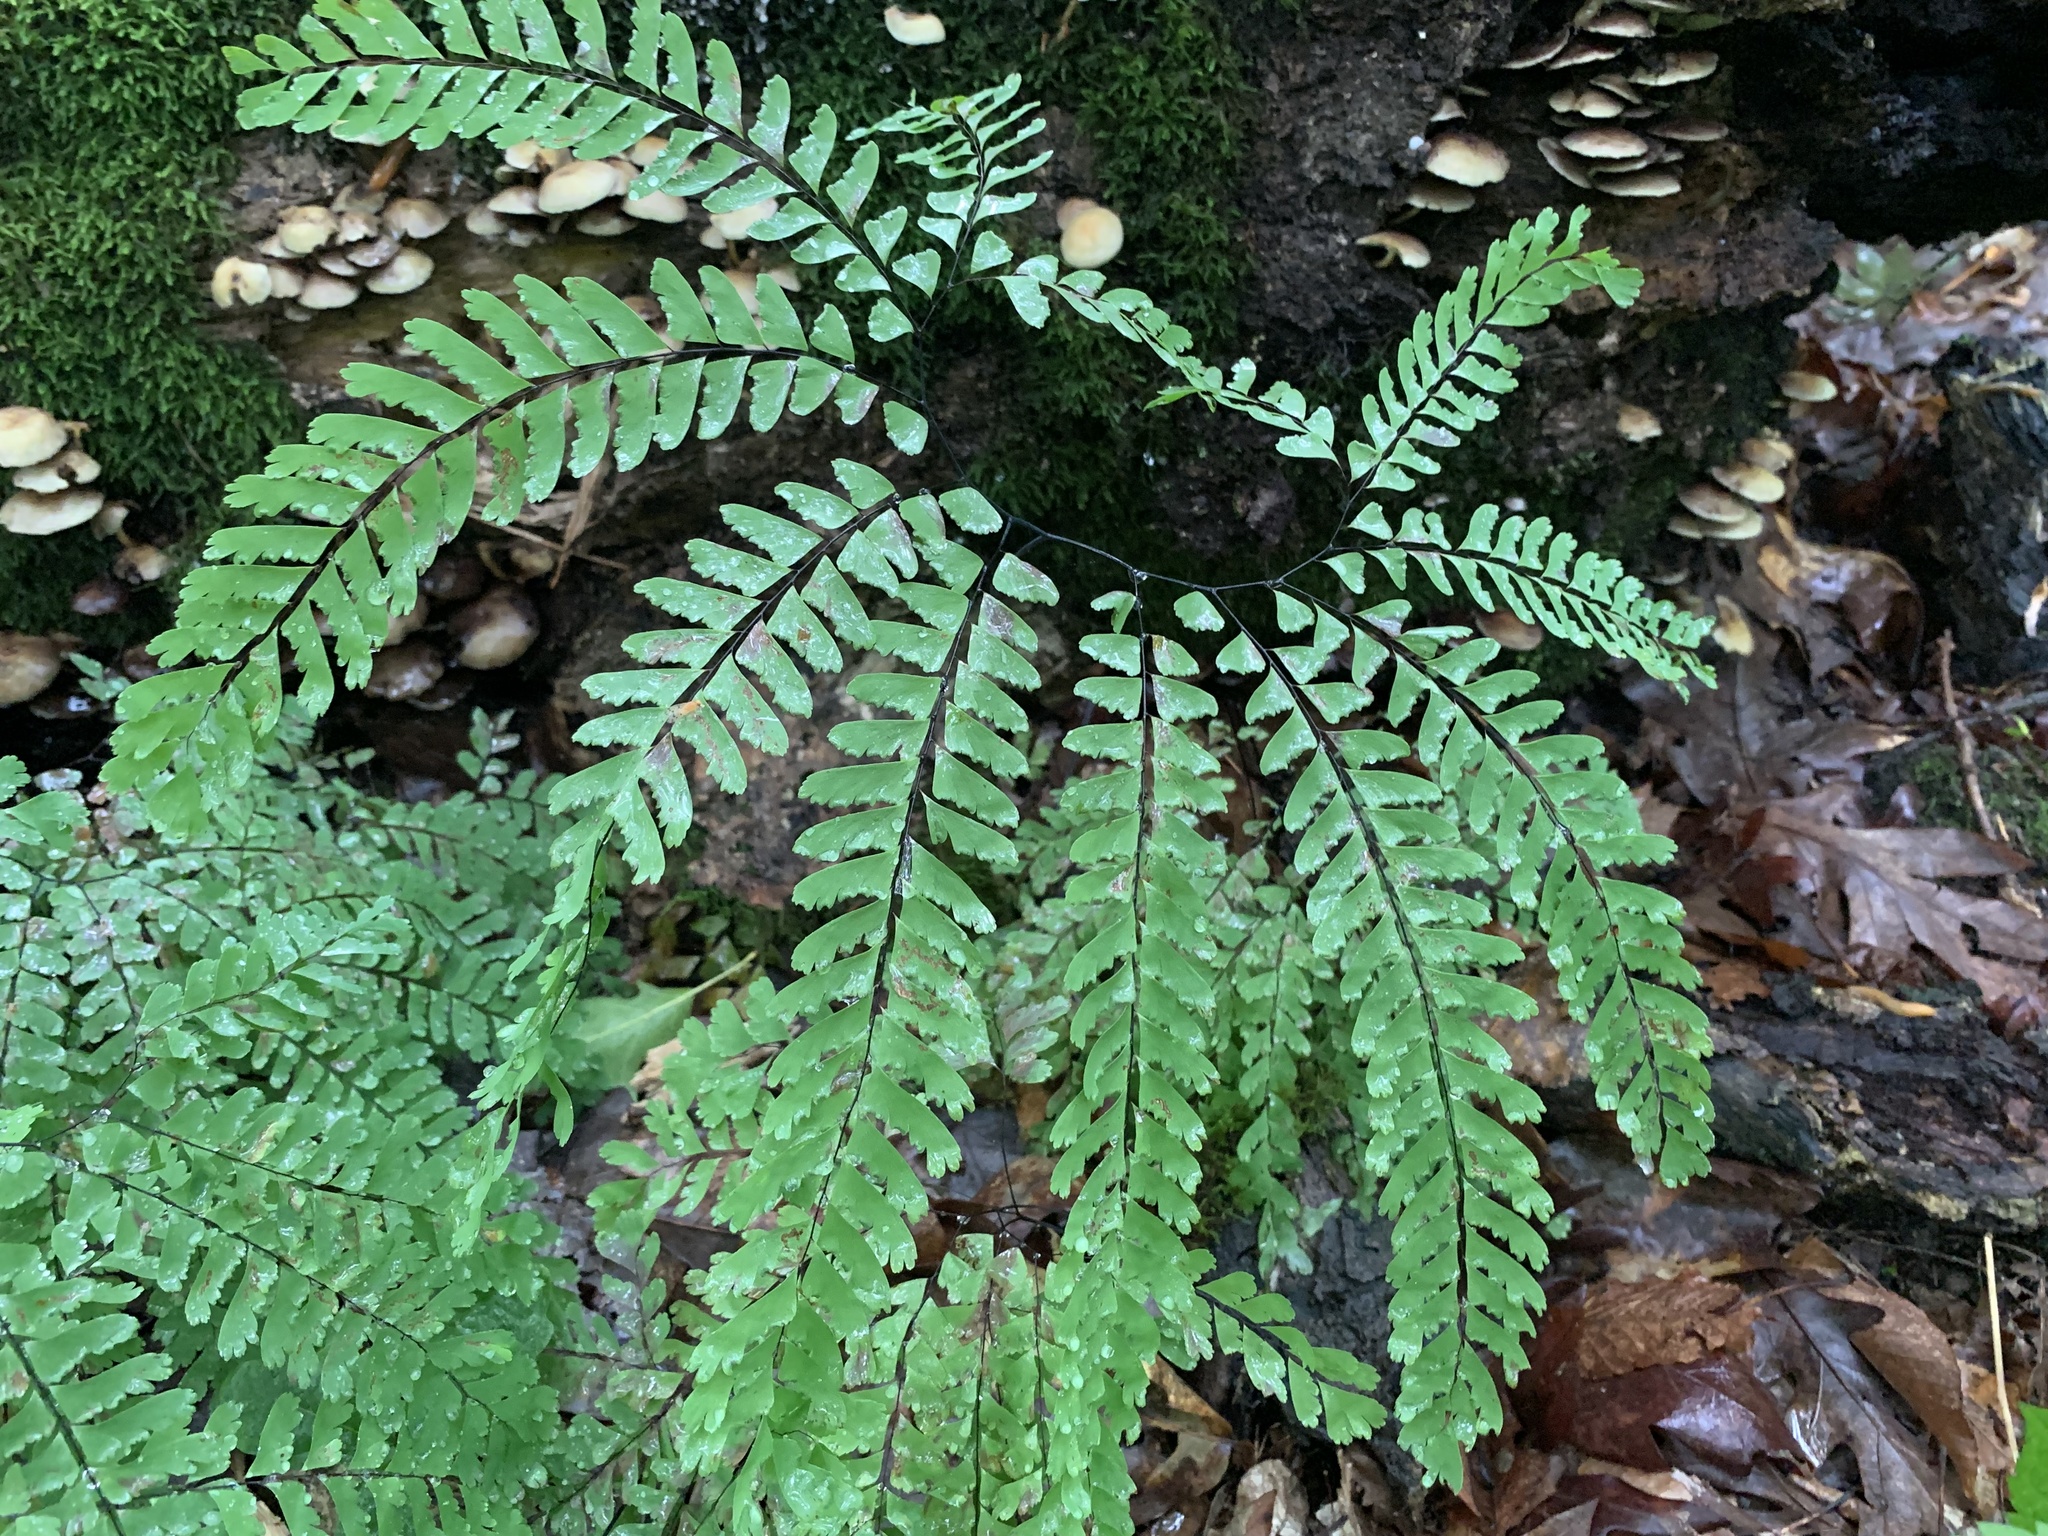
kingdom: Plantae
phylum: Tracheophyta
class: Polypodiopsida
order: Polypodiales
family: Pteridaceae
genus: Adiantum
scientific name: Adiantum pedatum
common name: Five-finger fern
